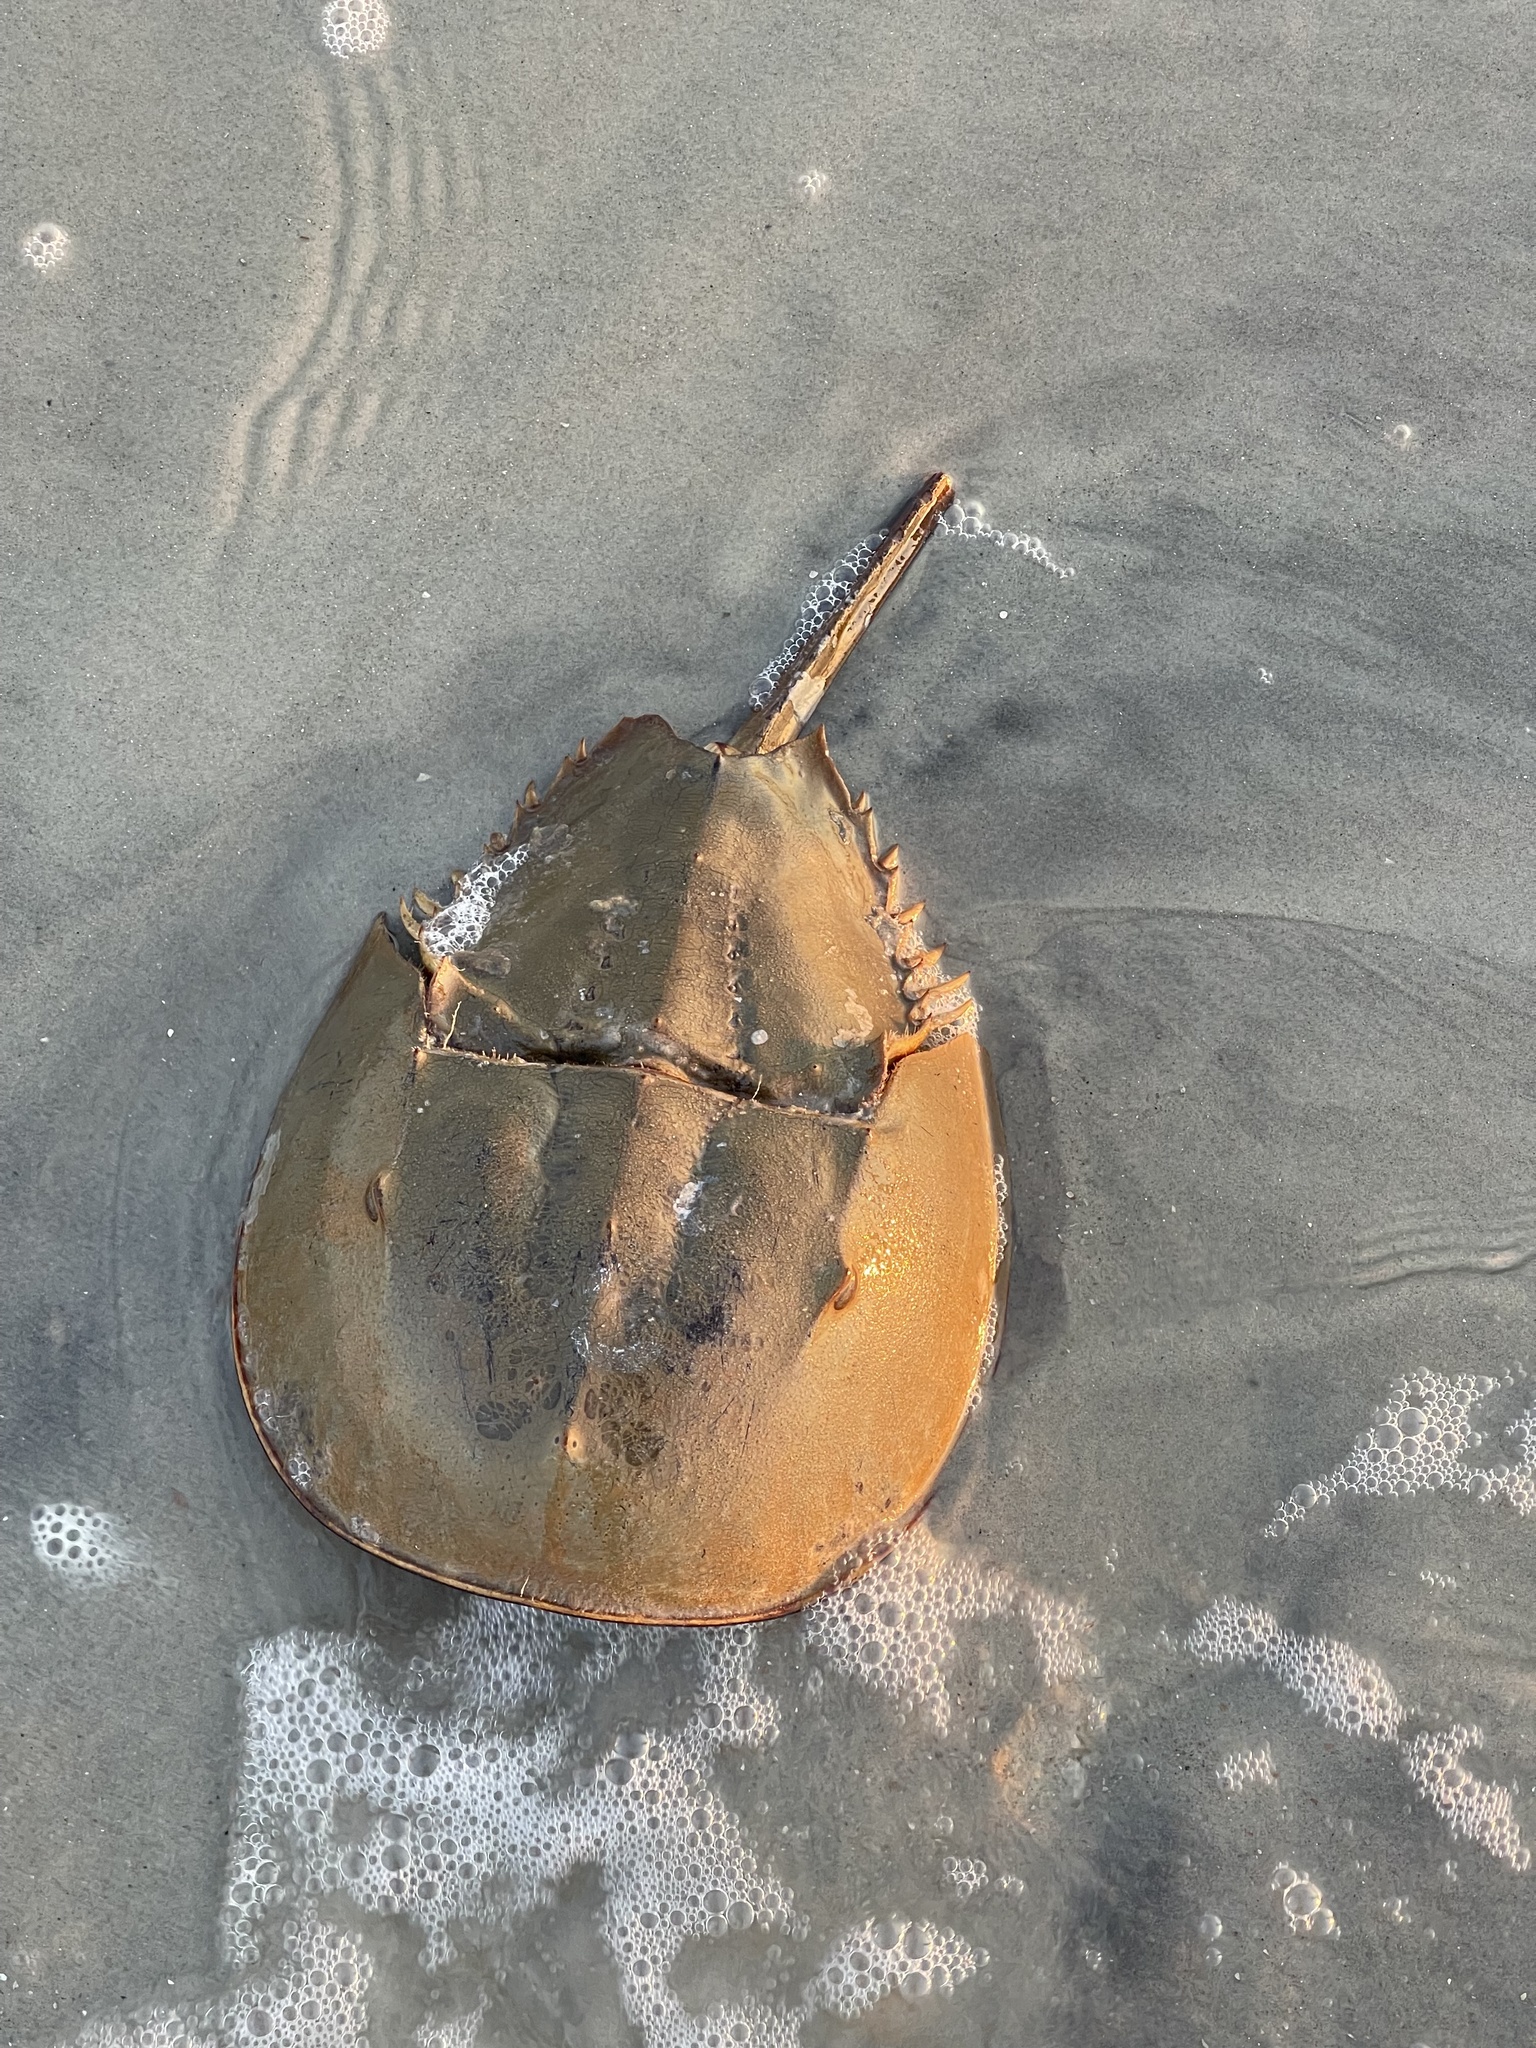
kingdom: Animalia
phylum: Arthropoda
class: Merostomata
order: Xiphosurida
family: Limulidae
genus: Limulus
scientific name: Limulus polyphemus
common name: Horseshoe crab
